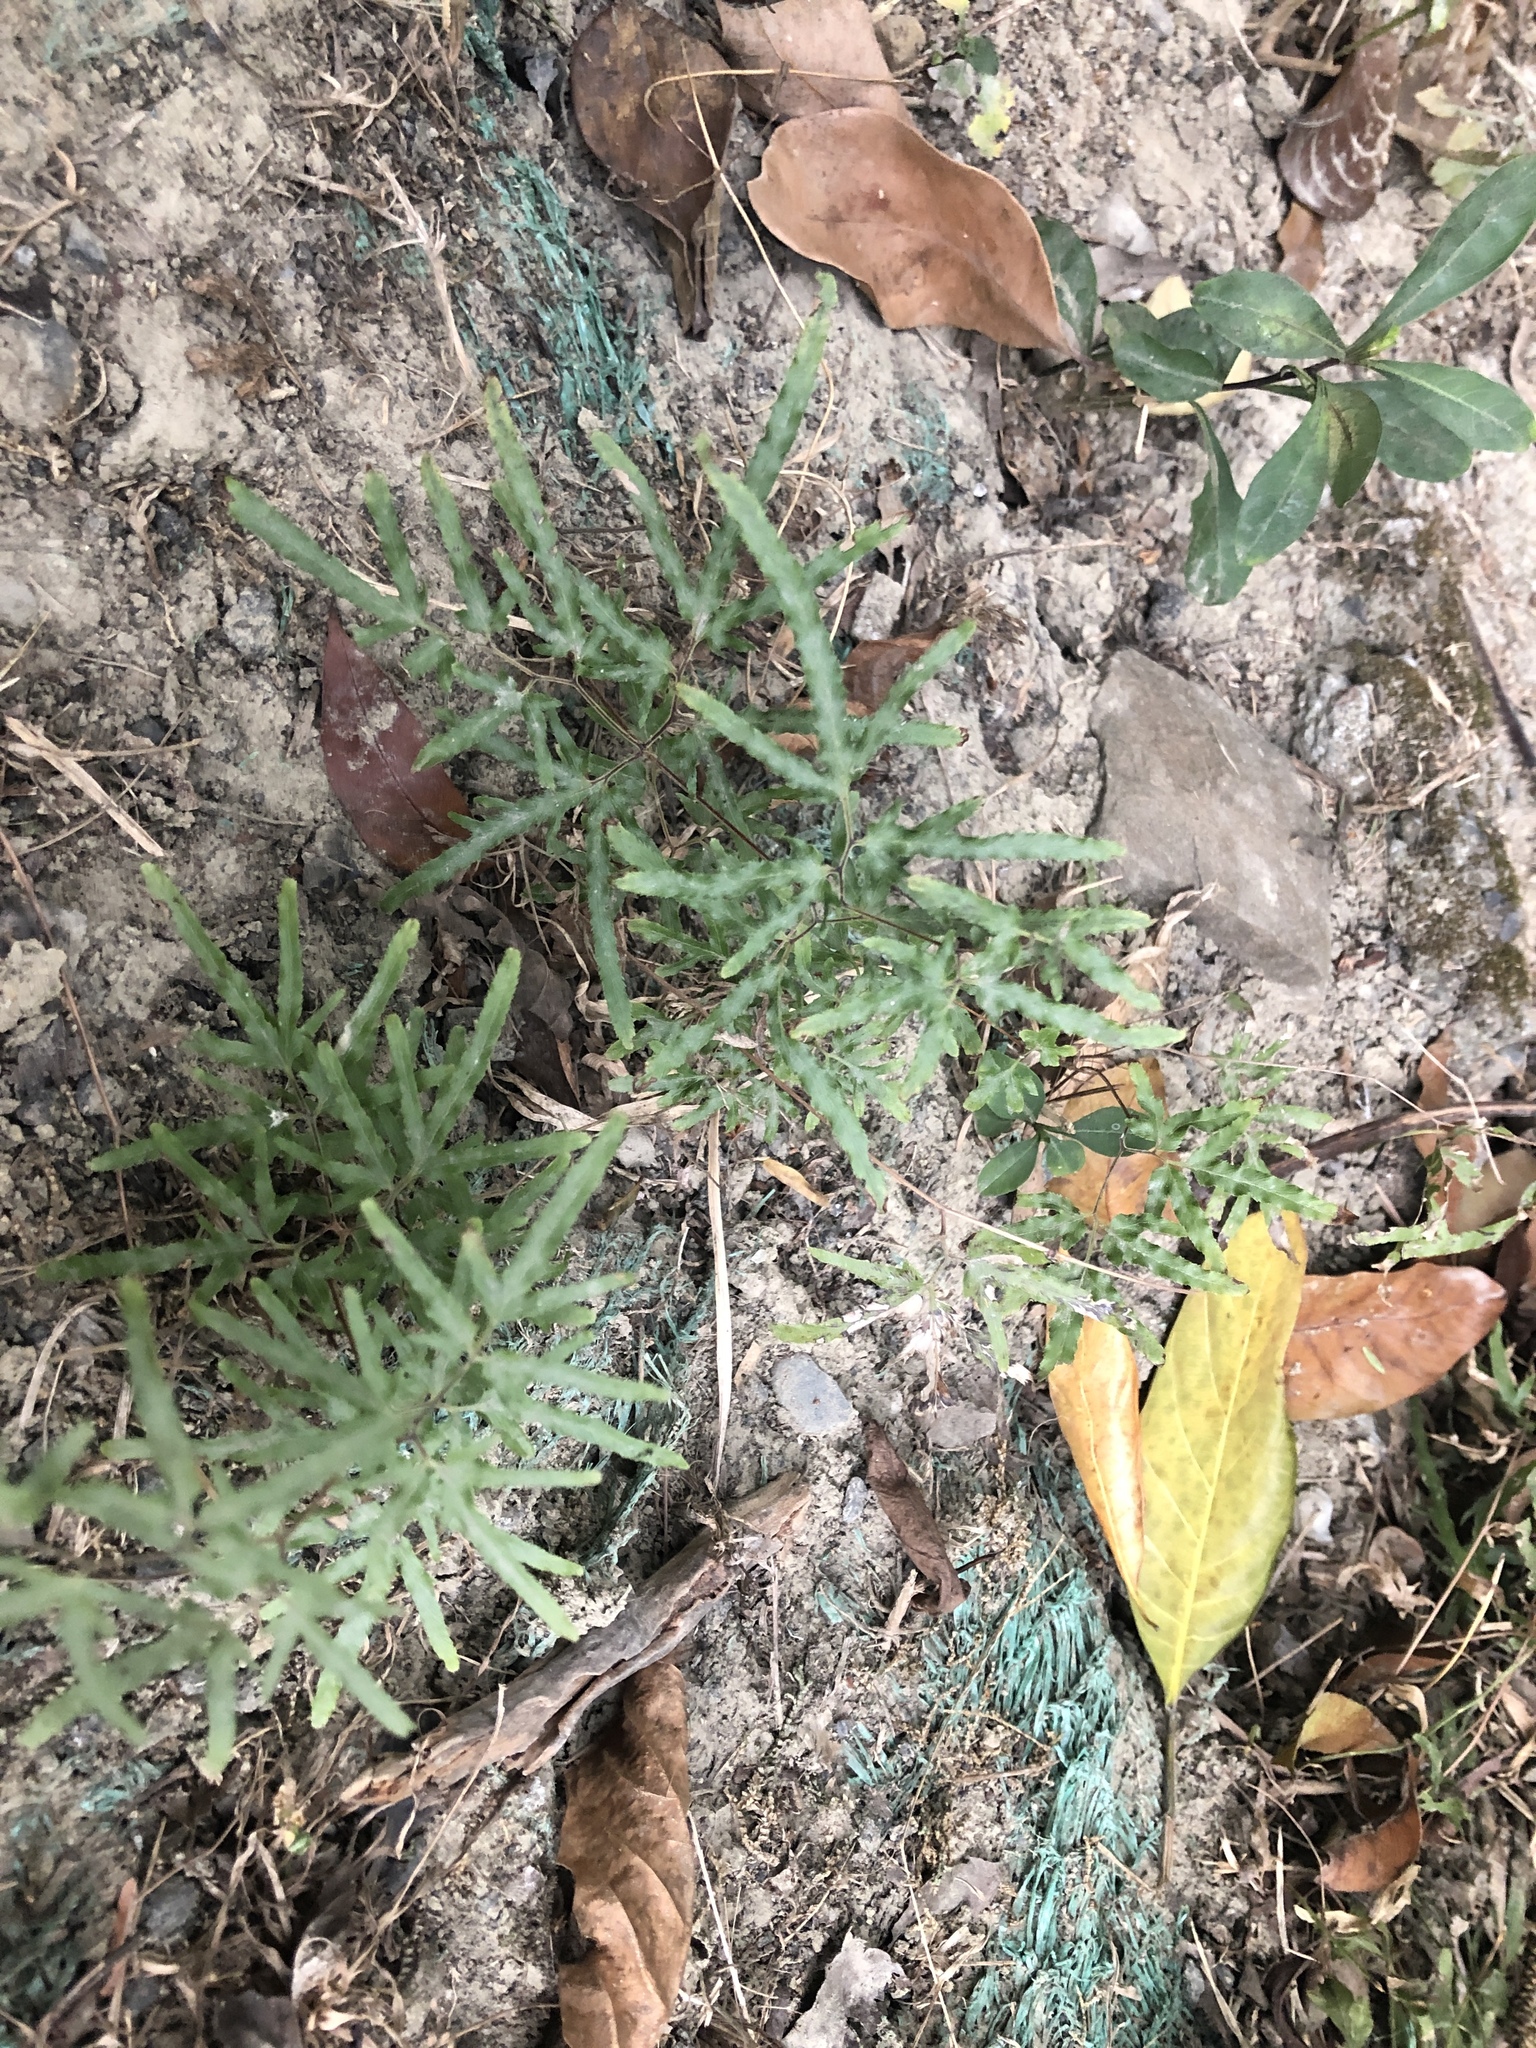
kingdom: Plantae
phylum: Tracheophyta
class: Polypodiopsida
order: Schizaeales
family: Lygodiaceae
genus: Lygodium
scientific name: Lygodium japonicum
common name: Japanese climbing fern
